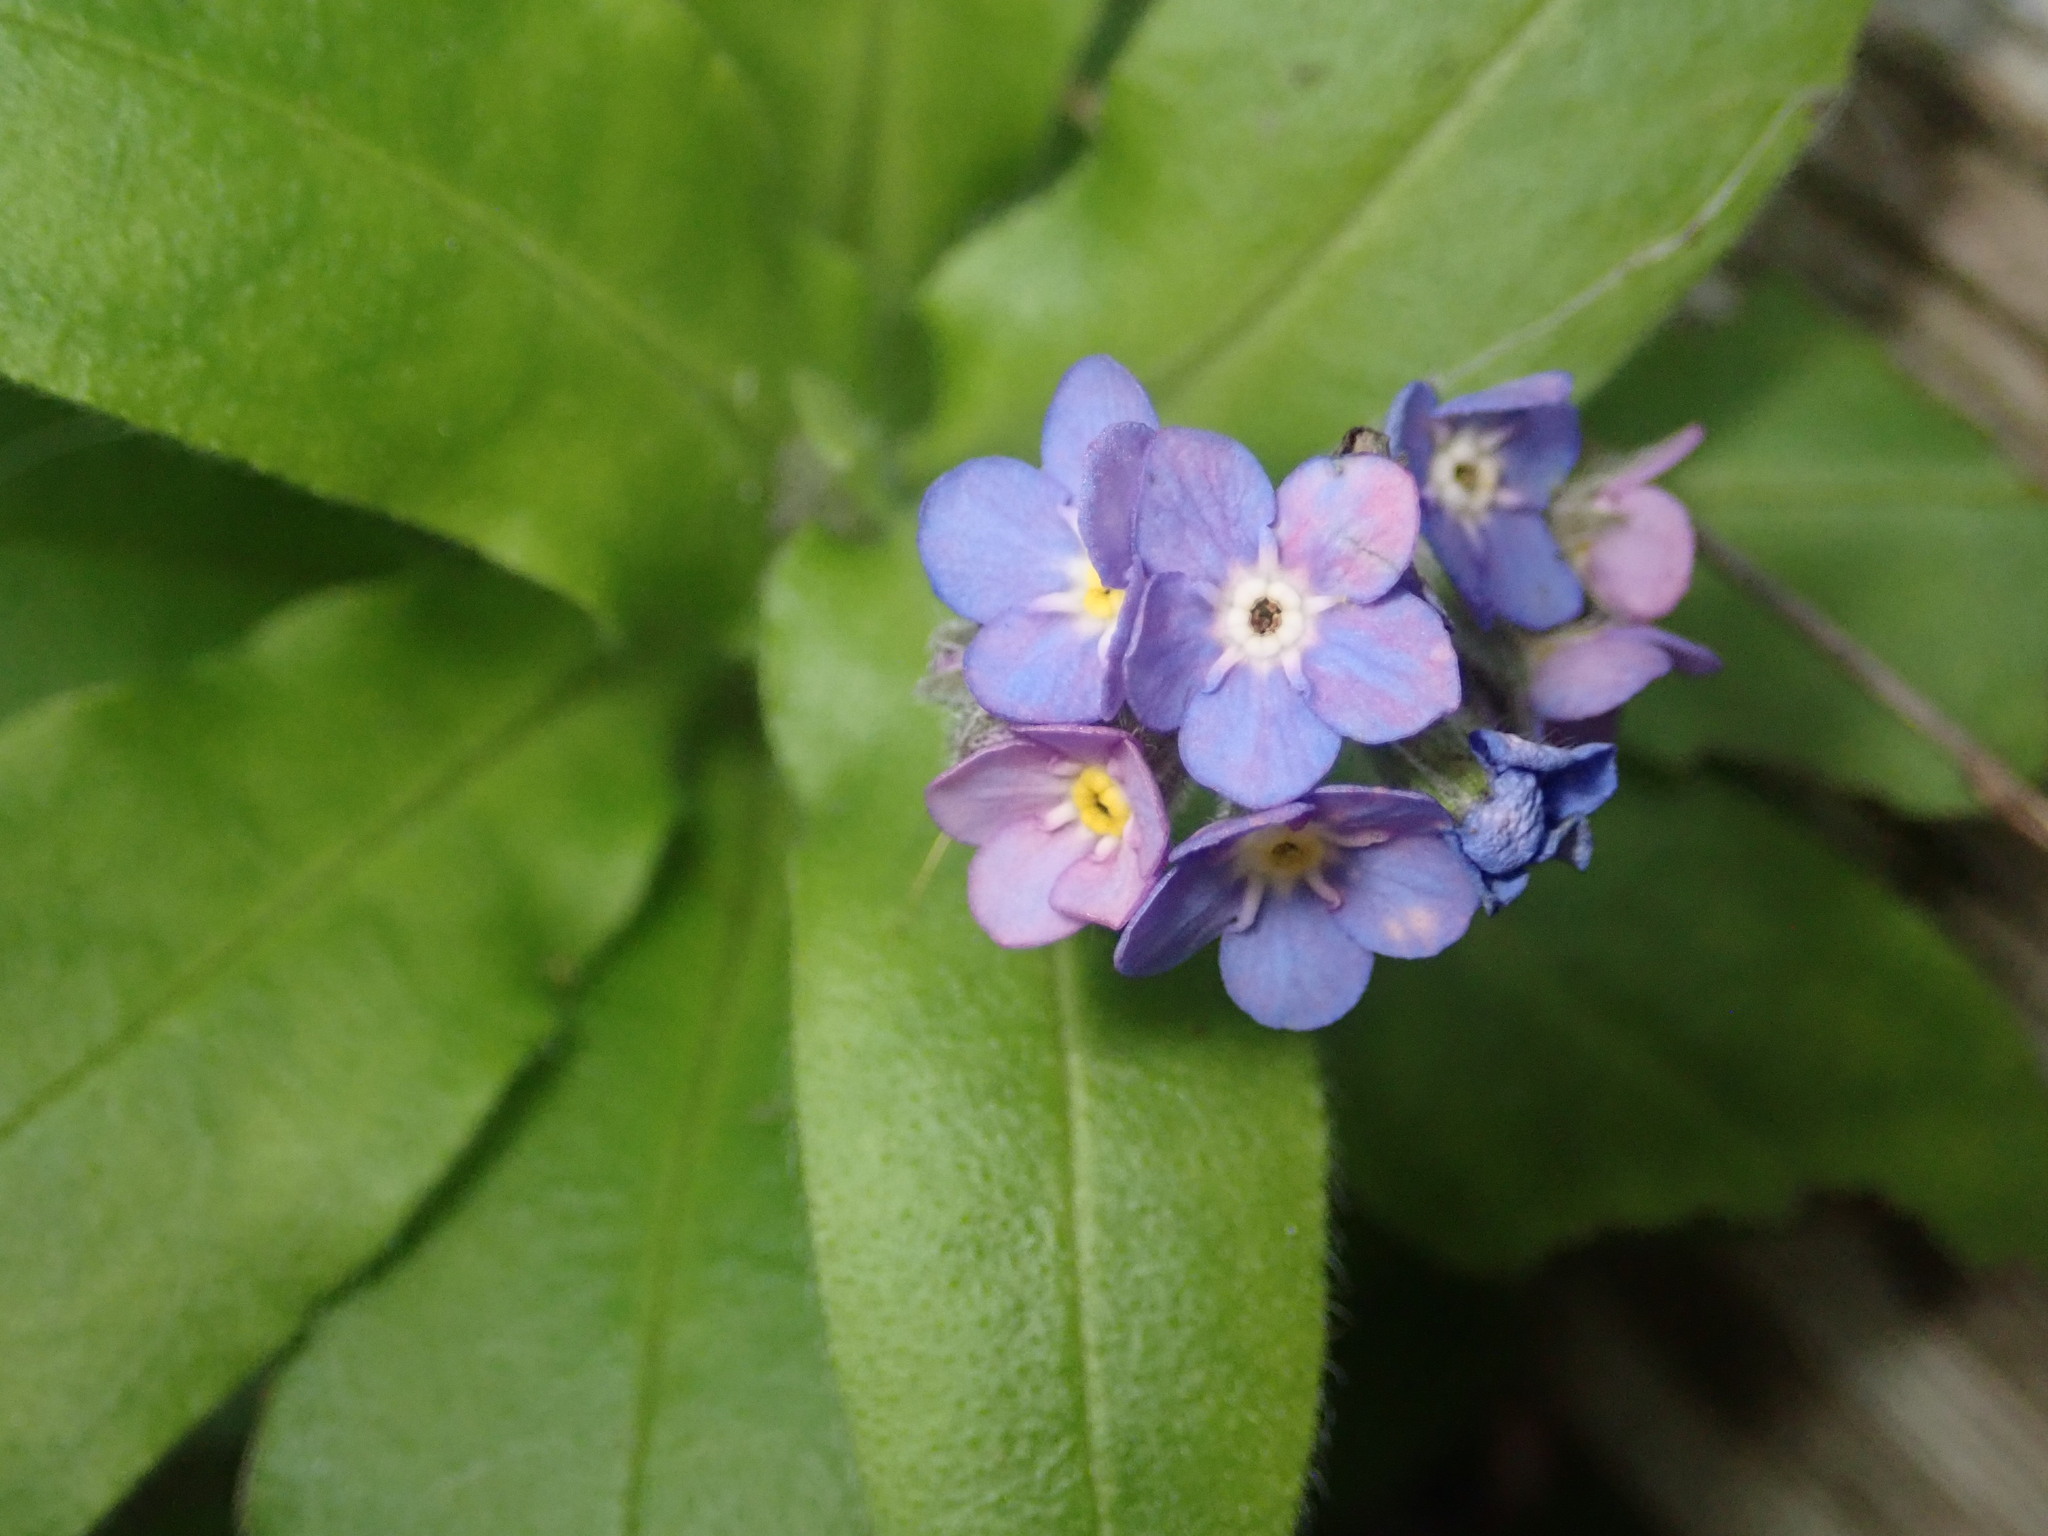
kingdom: Plantae
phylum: Tracheophyta
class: Magnoliopsida
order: Boraginales
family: Boraginaceae
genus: Myosotis
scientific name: Myosotis latifolia
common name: Broadleaf forget-me-not
